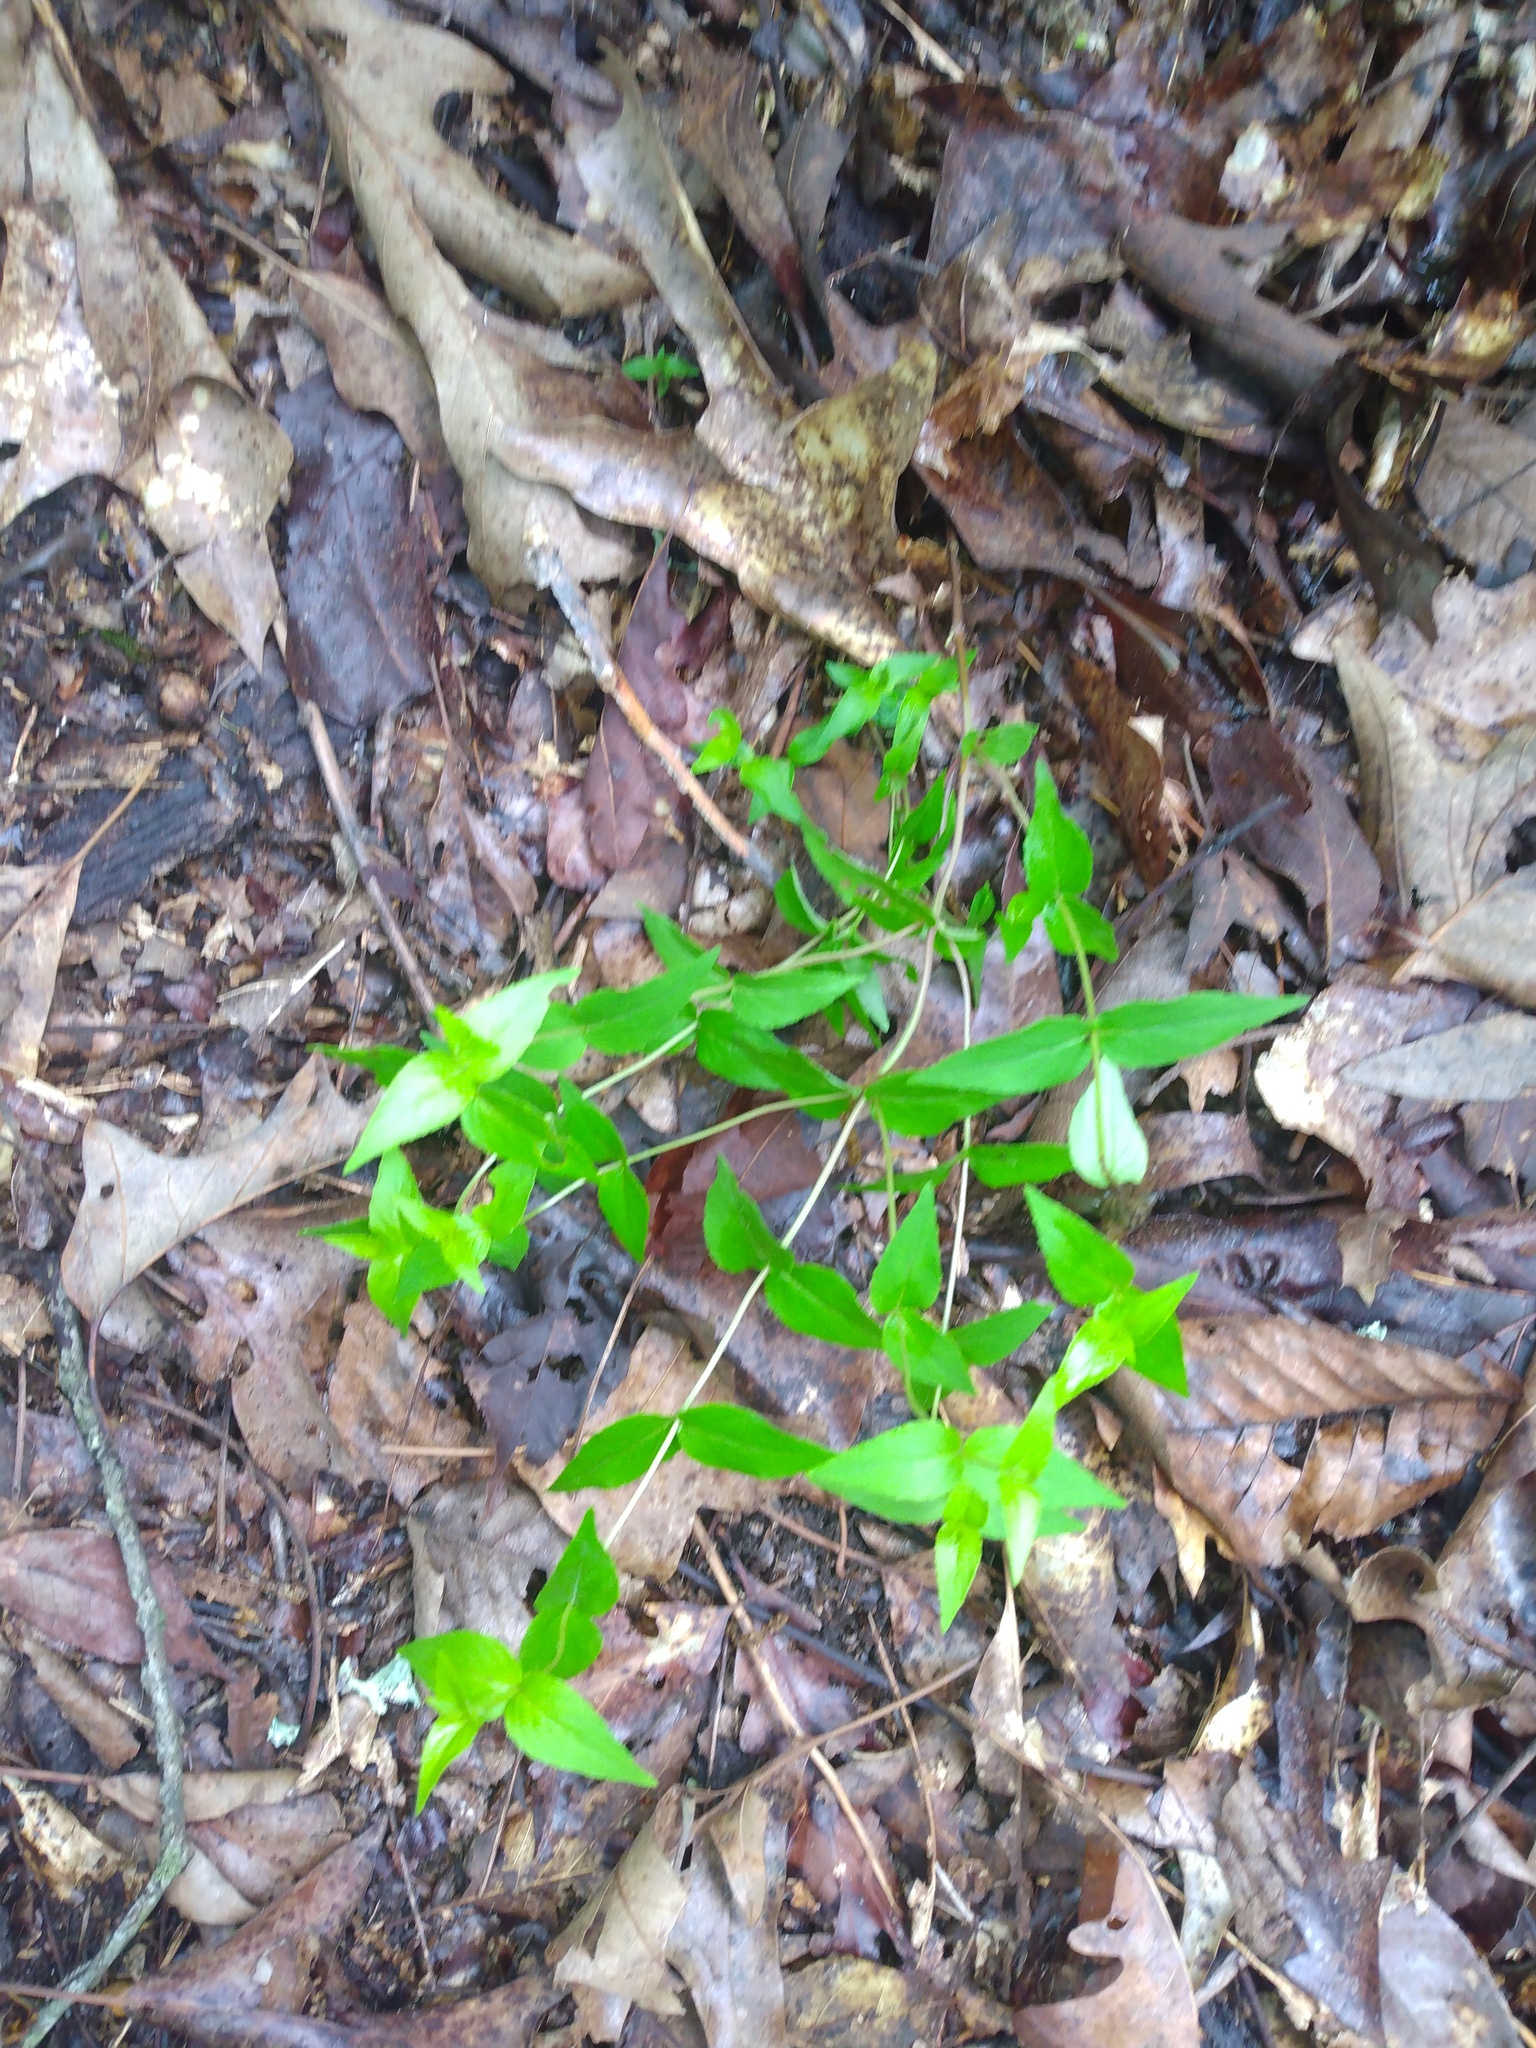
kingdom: Plantae
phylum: Tracheophyta
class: Magnoliopsida
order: Lamiales
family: Lamiaceae
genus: Cunila
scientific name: Cunila origanoides
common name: American dittany
